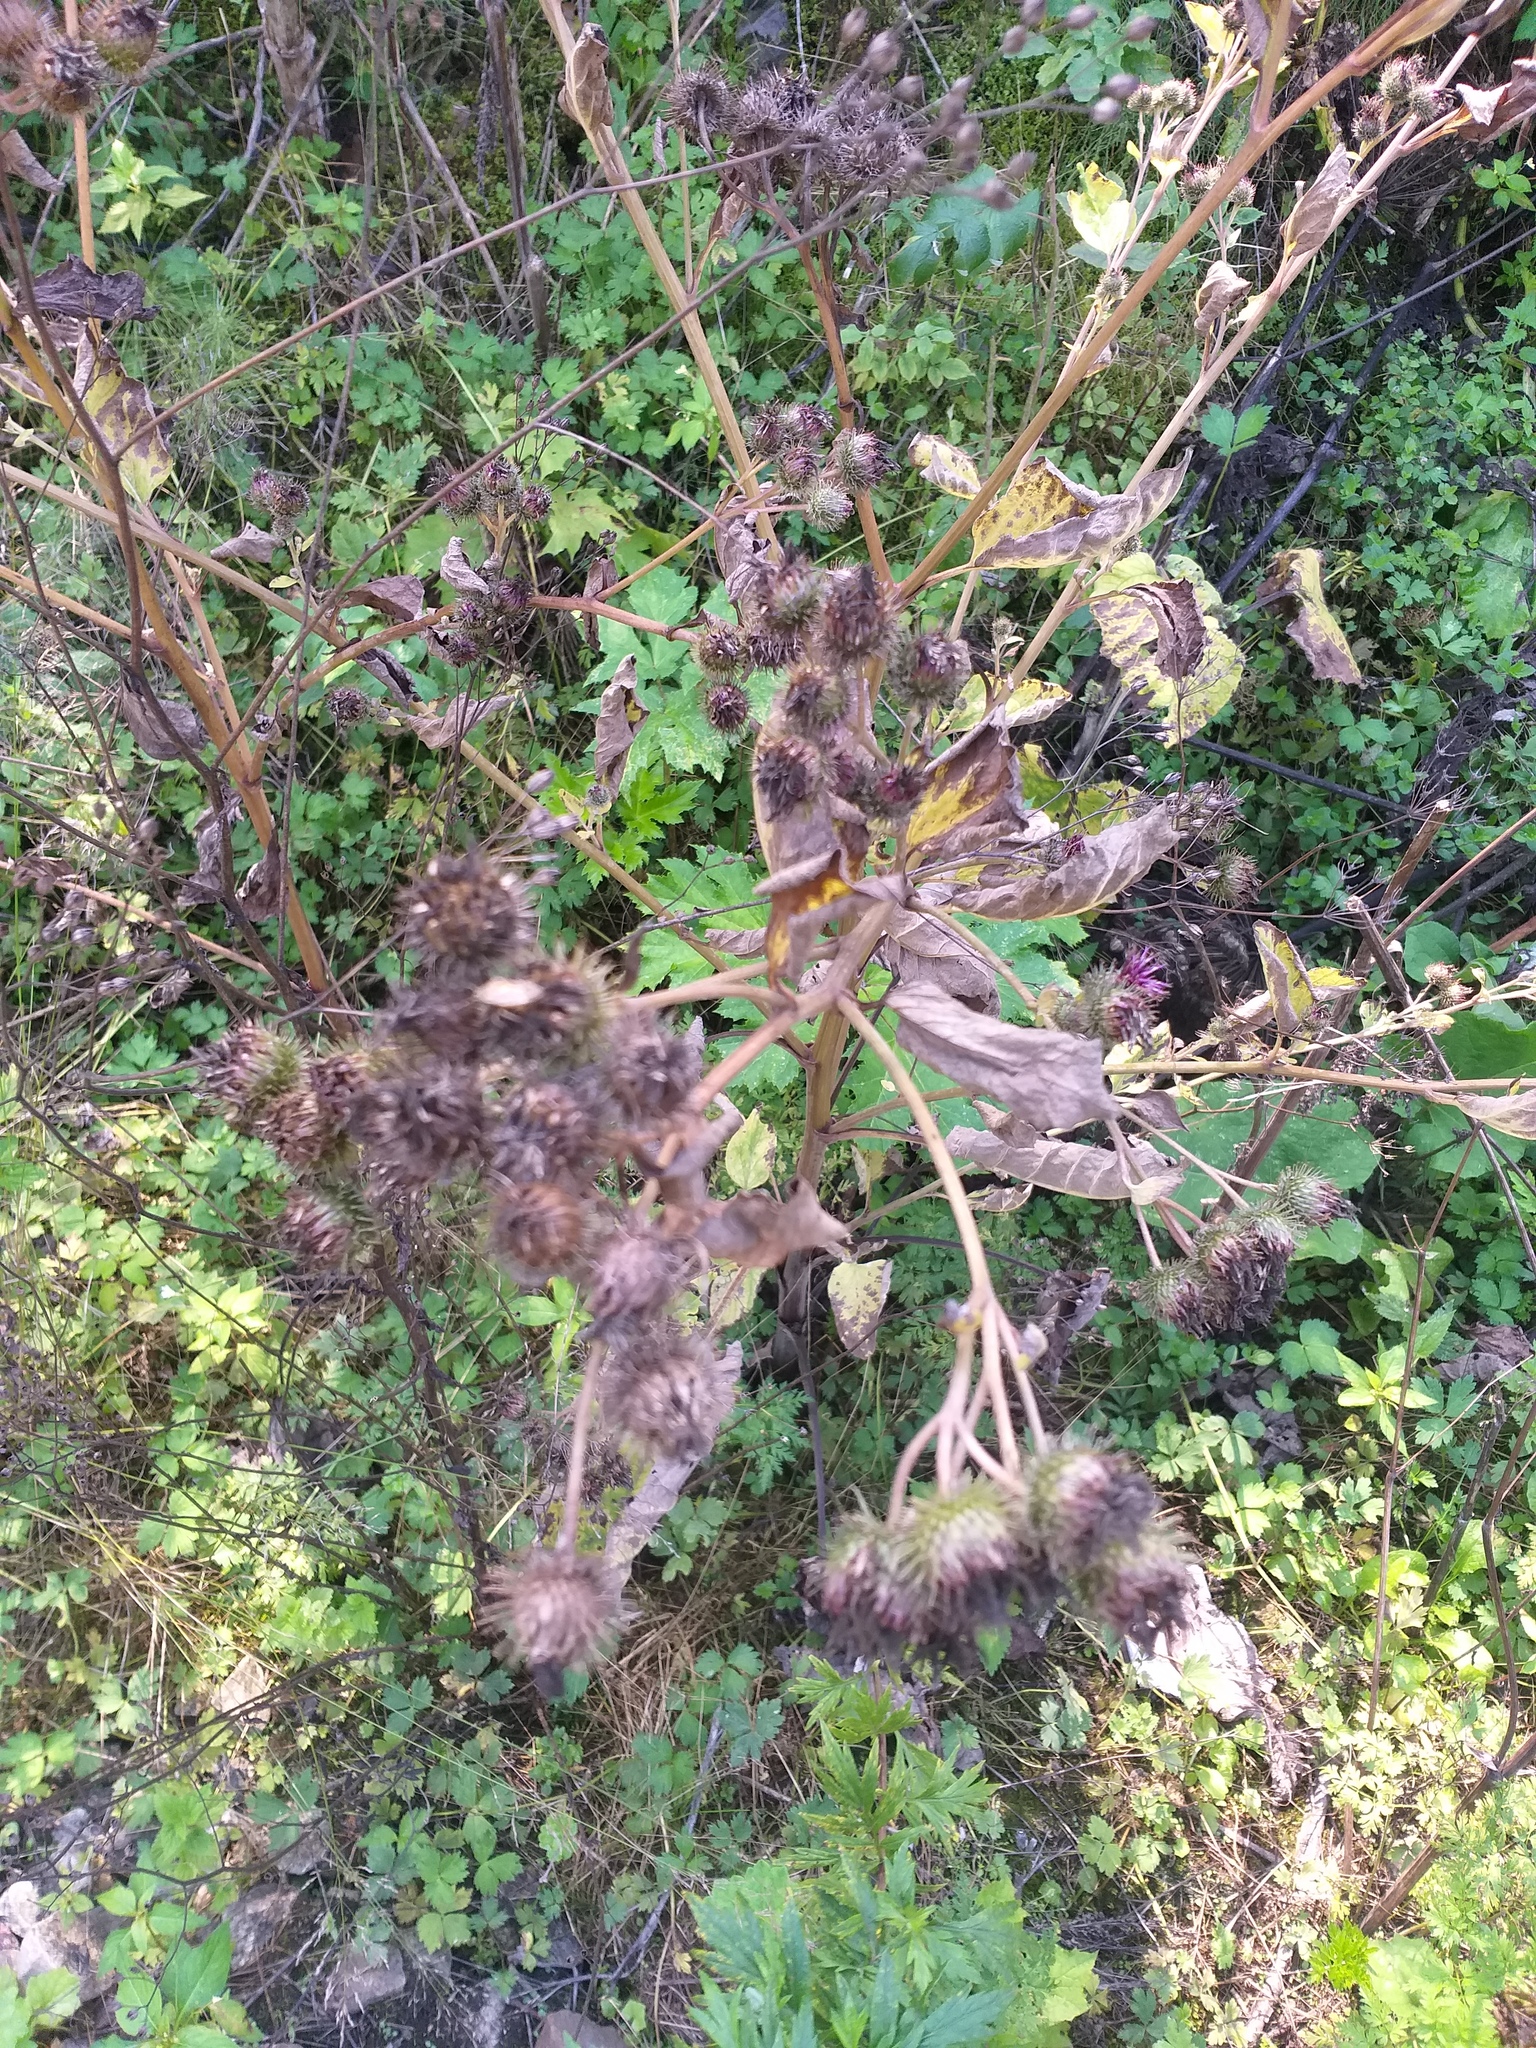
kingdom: Plantae
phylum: Tracheophyta
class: Magnoliopsida
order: Asterales
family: Asteraceae
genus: Arctium
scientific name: Arctium tomentosum
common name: Woolly burdock
